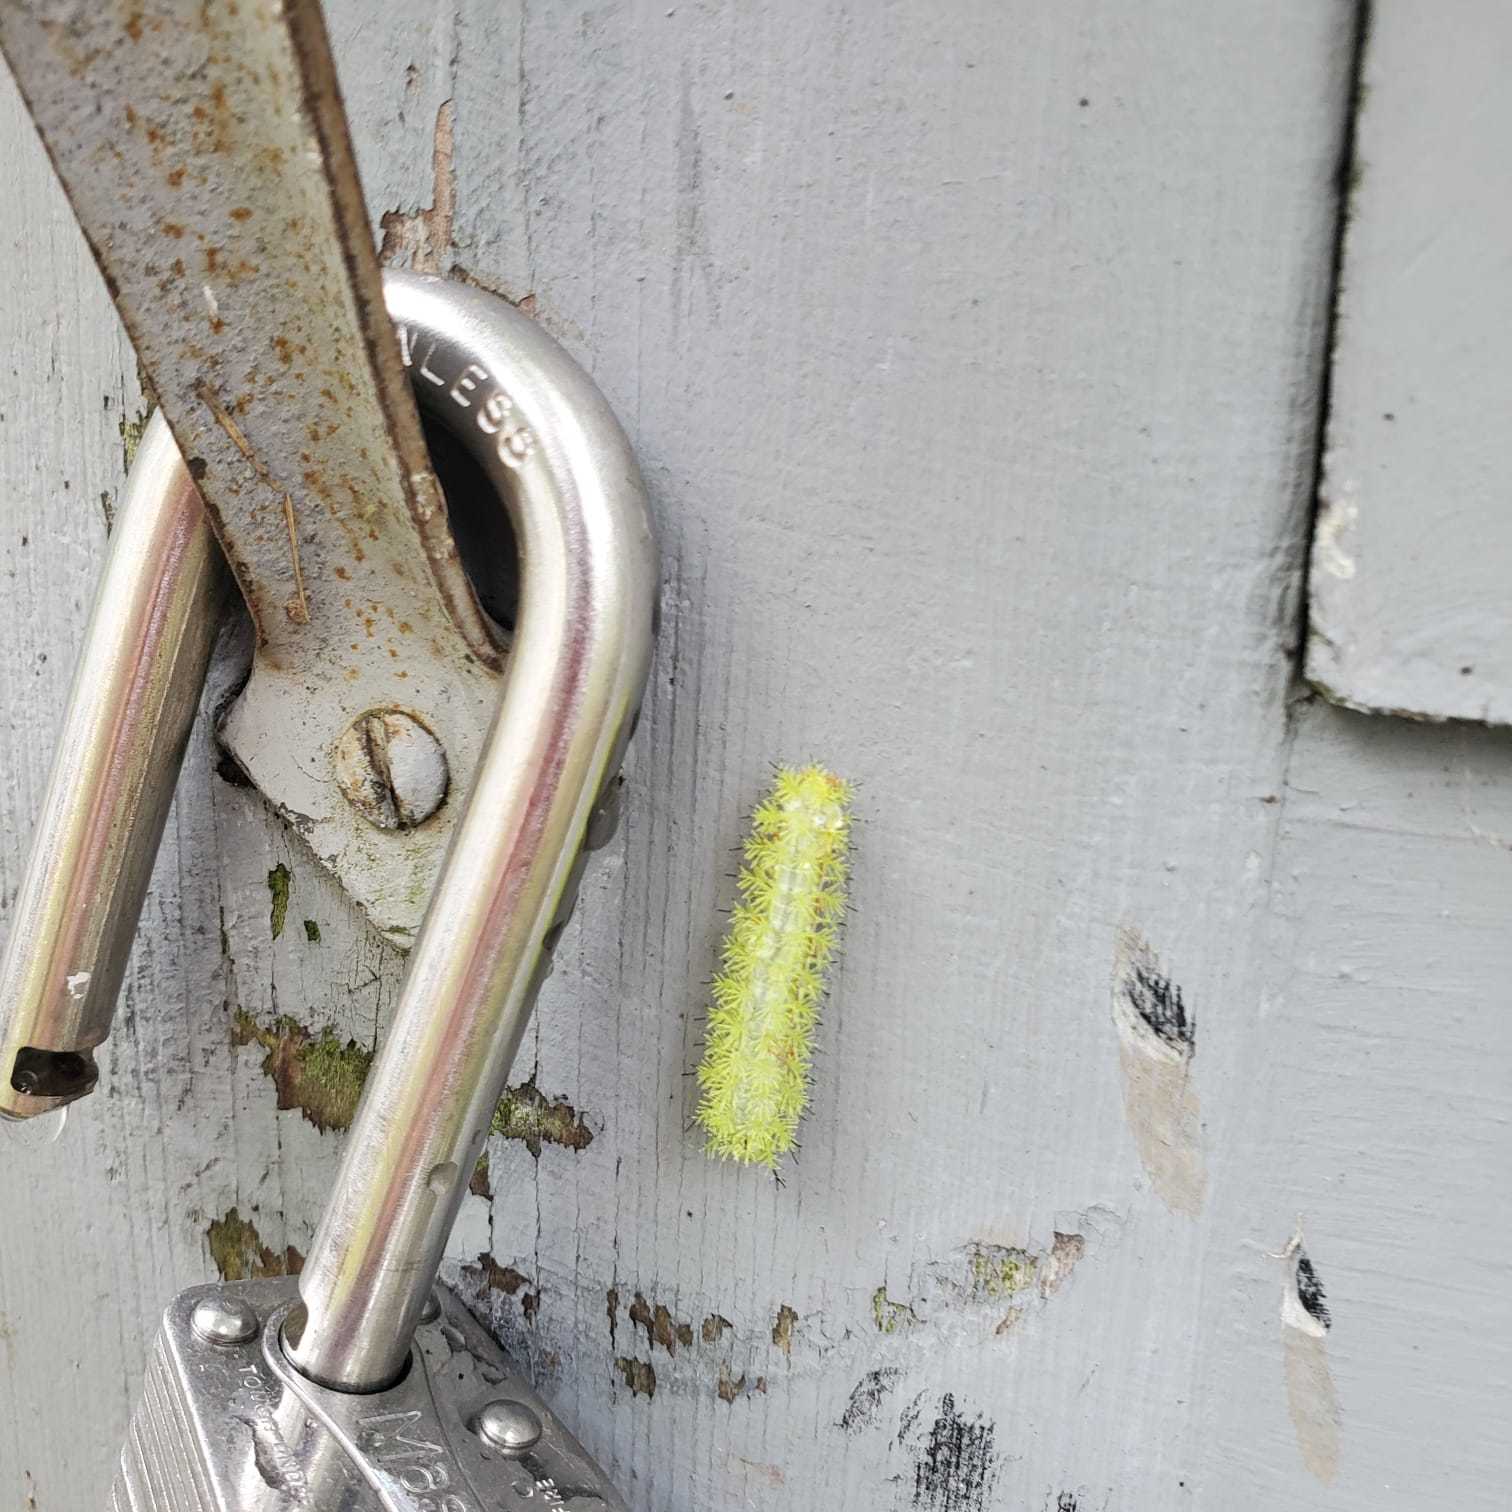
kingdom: Animalia
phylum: Arthropoda
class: Insecta
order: Lepidoptera
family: Saturniidae
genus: Automeris
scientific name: Automeris io
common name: Io moth
